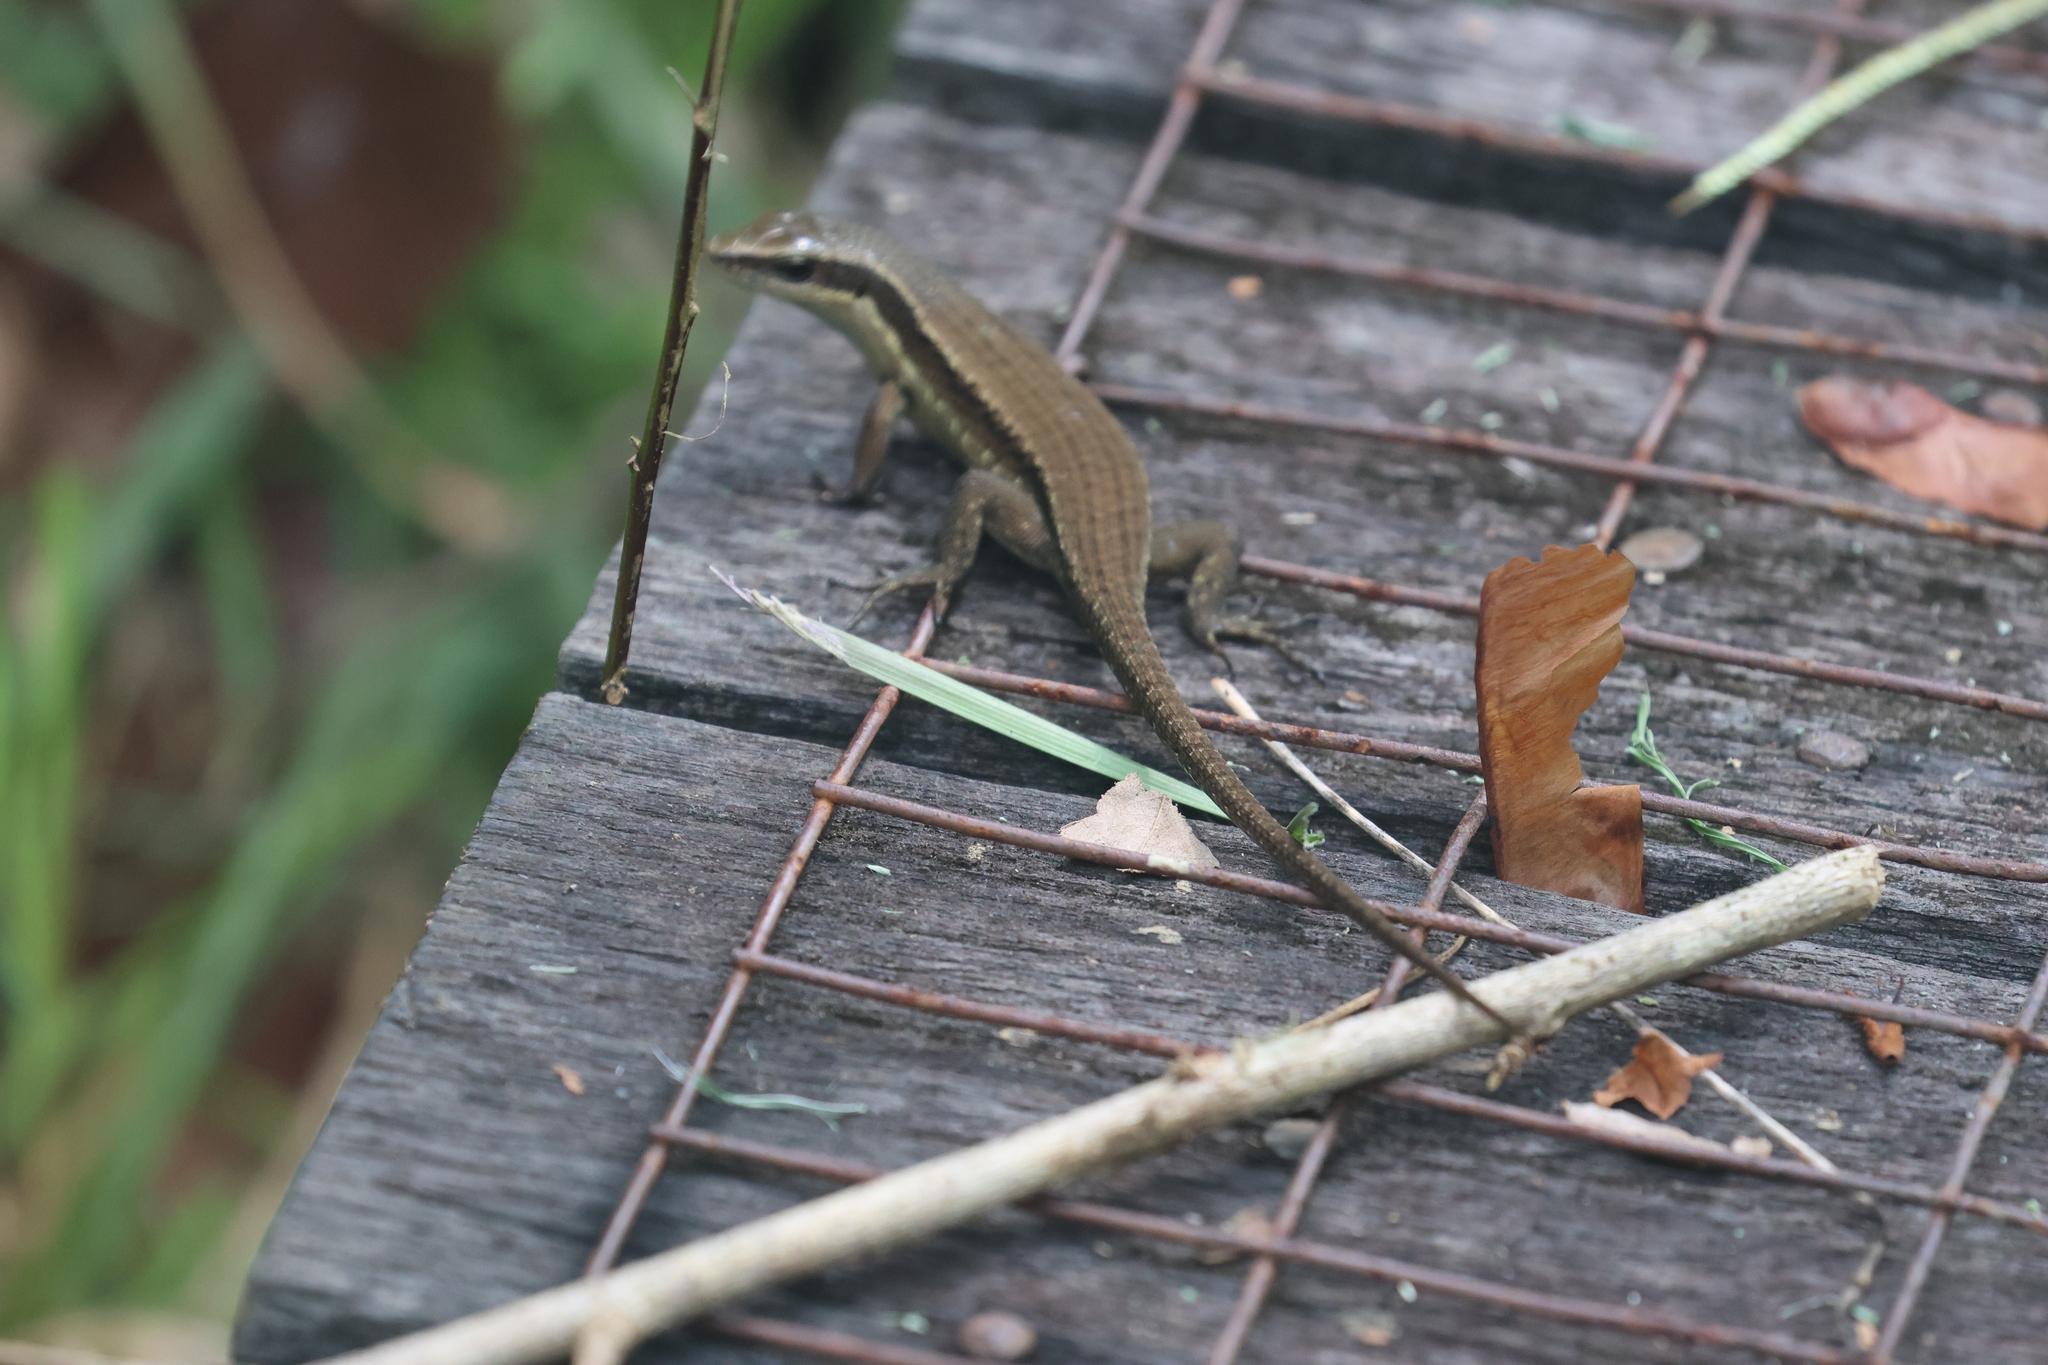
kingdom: Animalia
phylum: Chordata
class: Squamata
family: Scincidae
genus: Eutropis
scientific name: Eutropis rudis
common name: Rough mabuya
